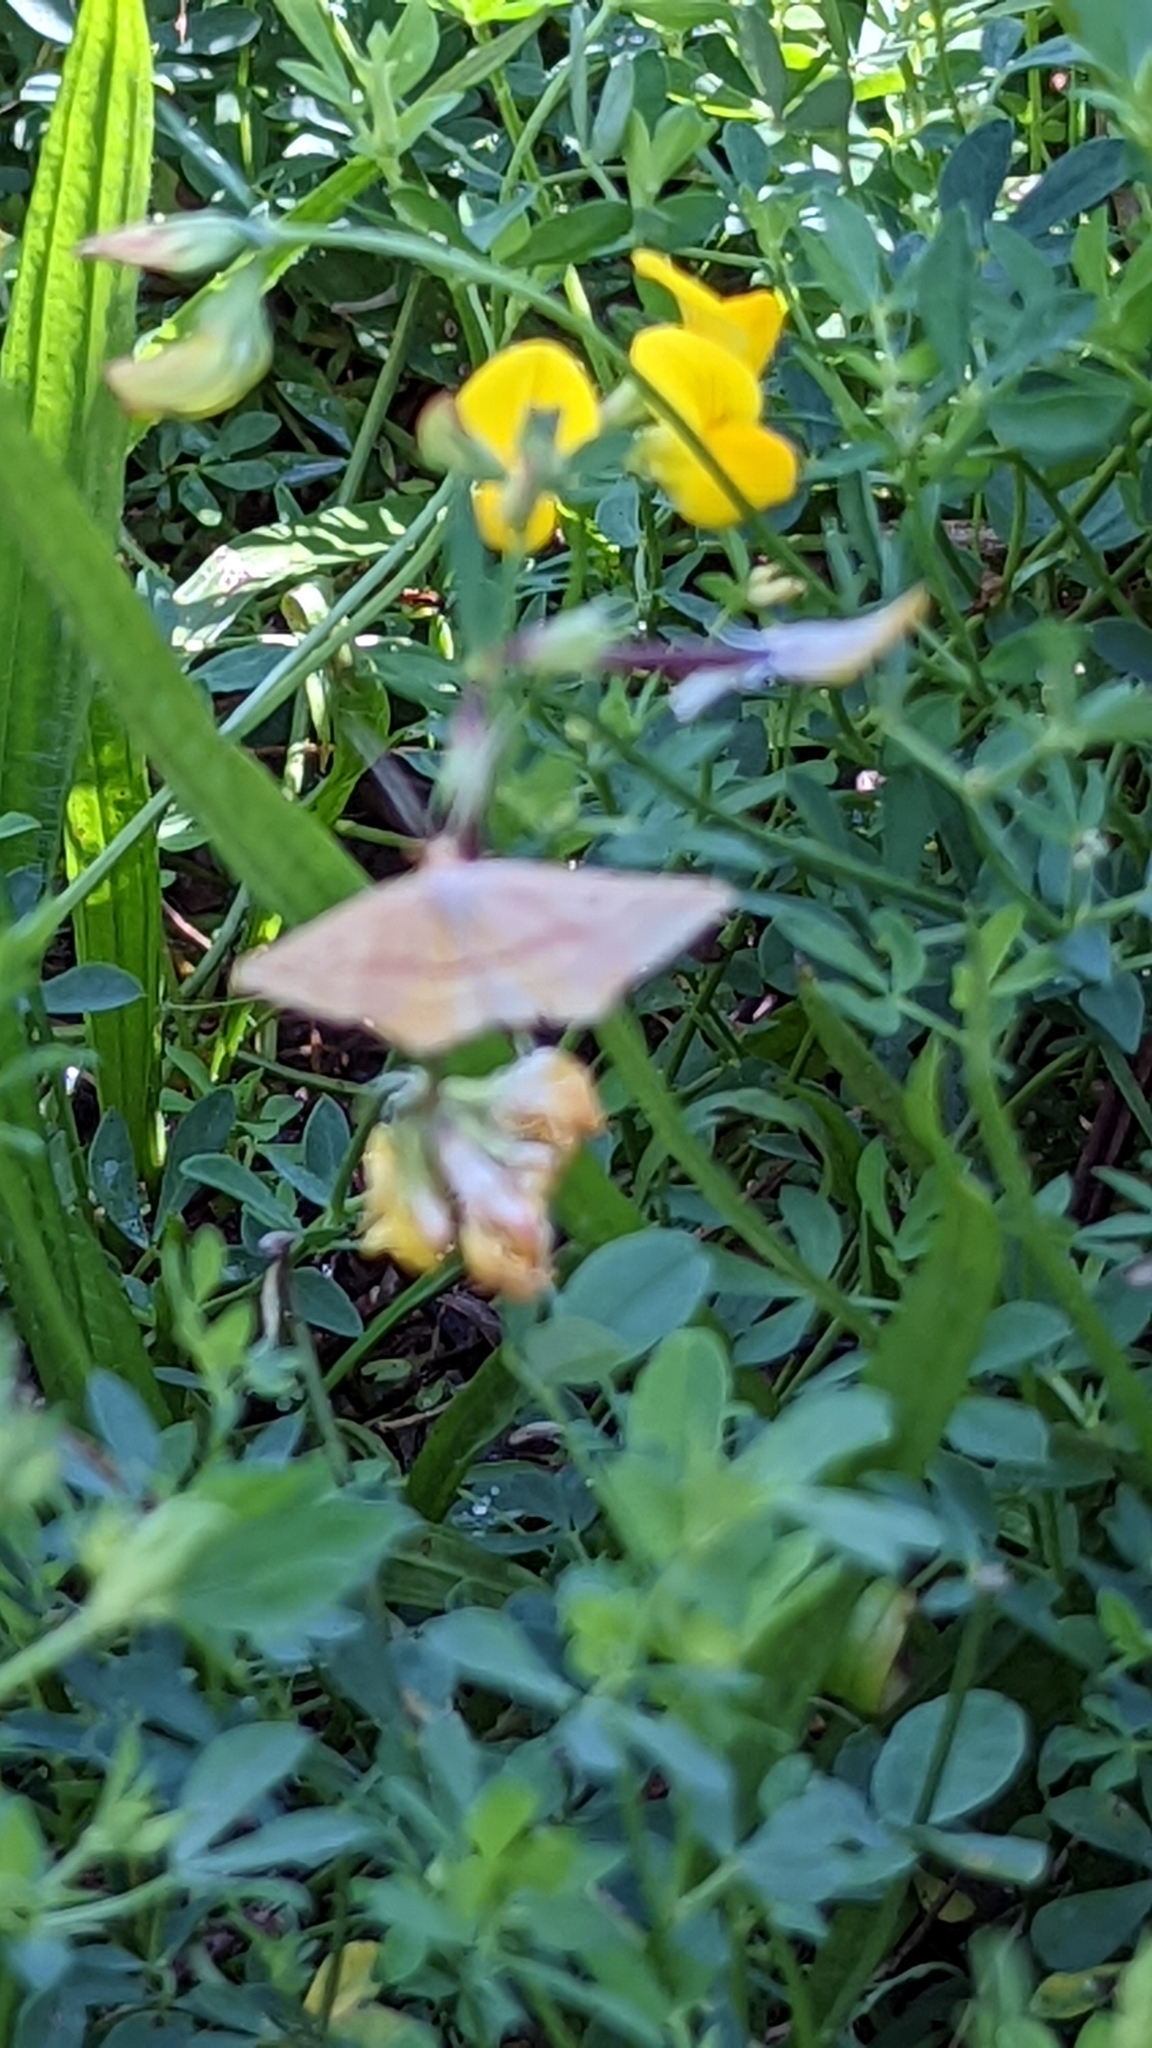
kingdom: Animalia
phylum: Arthropoda
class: Insecta
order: Lepidoptera
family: Geometridae
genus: Haematopis
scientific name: Haematopis grataria
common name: Chickweed geometer
